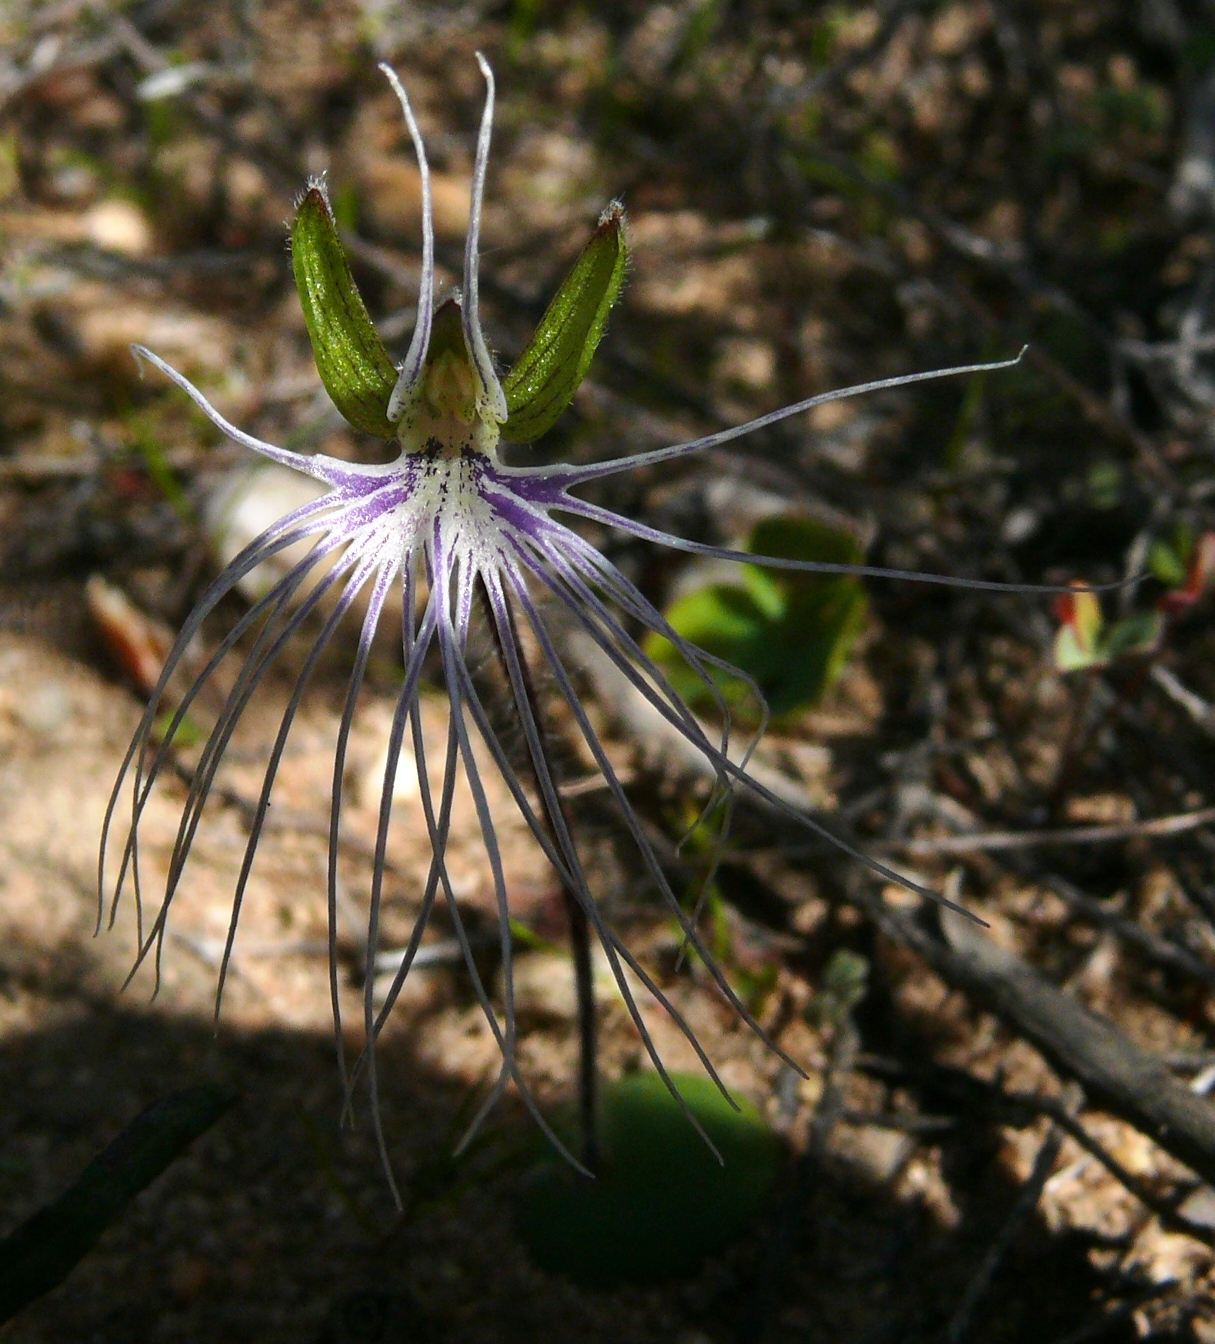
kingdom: Plantae
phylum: Tracheophyta
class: Liliopsida
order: Asparagales
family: Orchidaceae
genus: Holothrix
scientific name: Holothrix burmanniana
